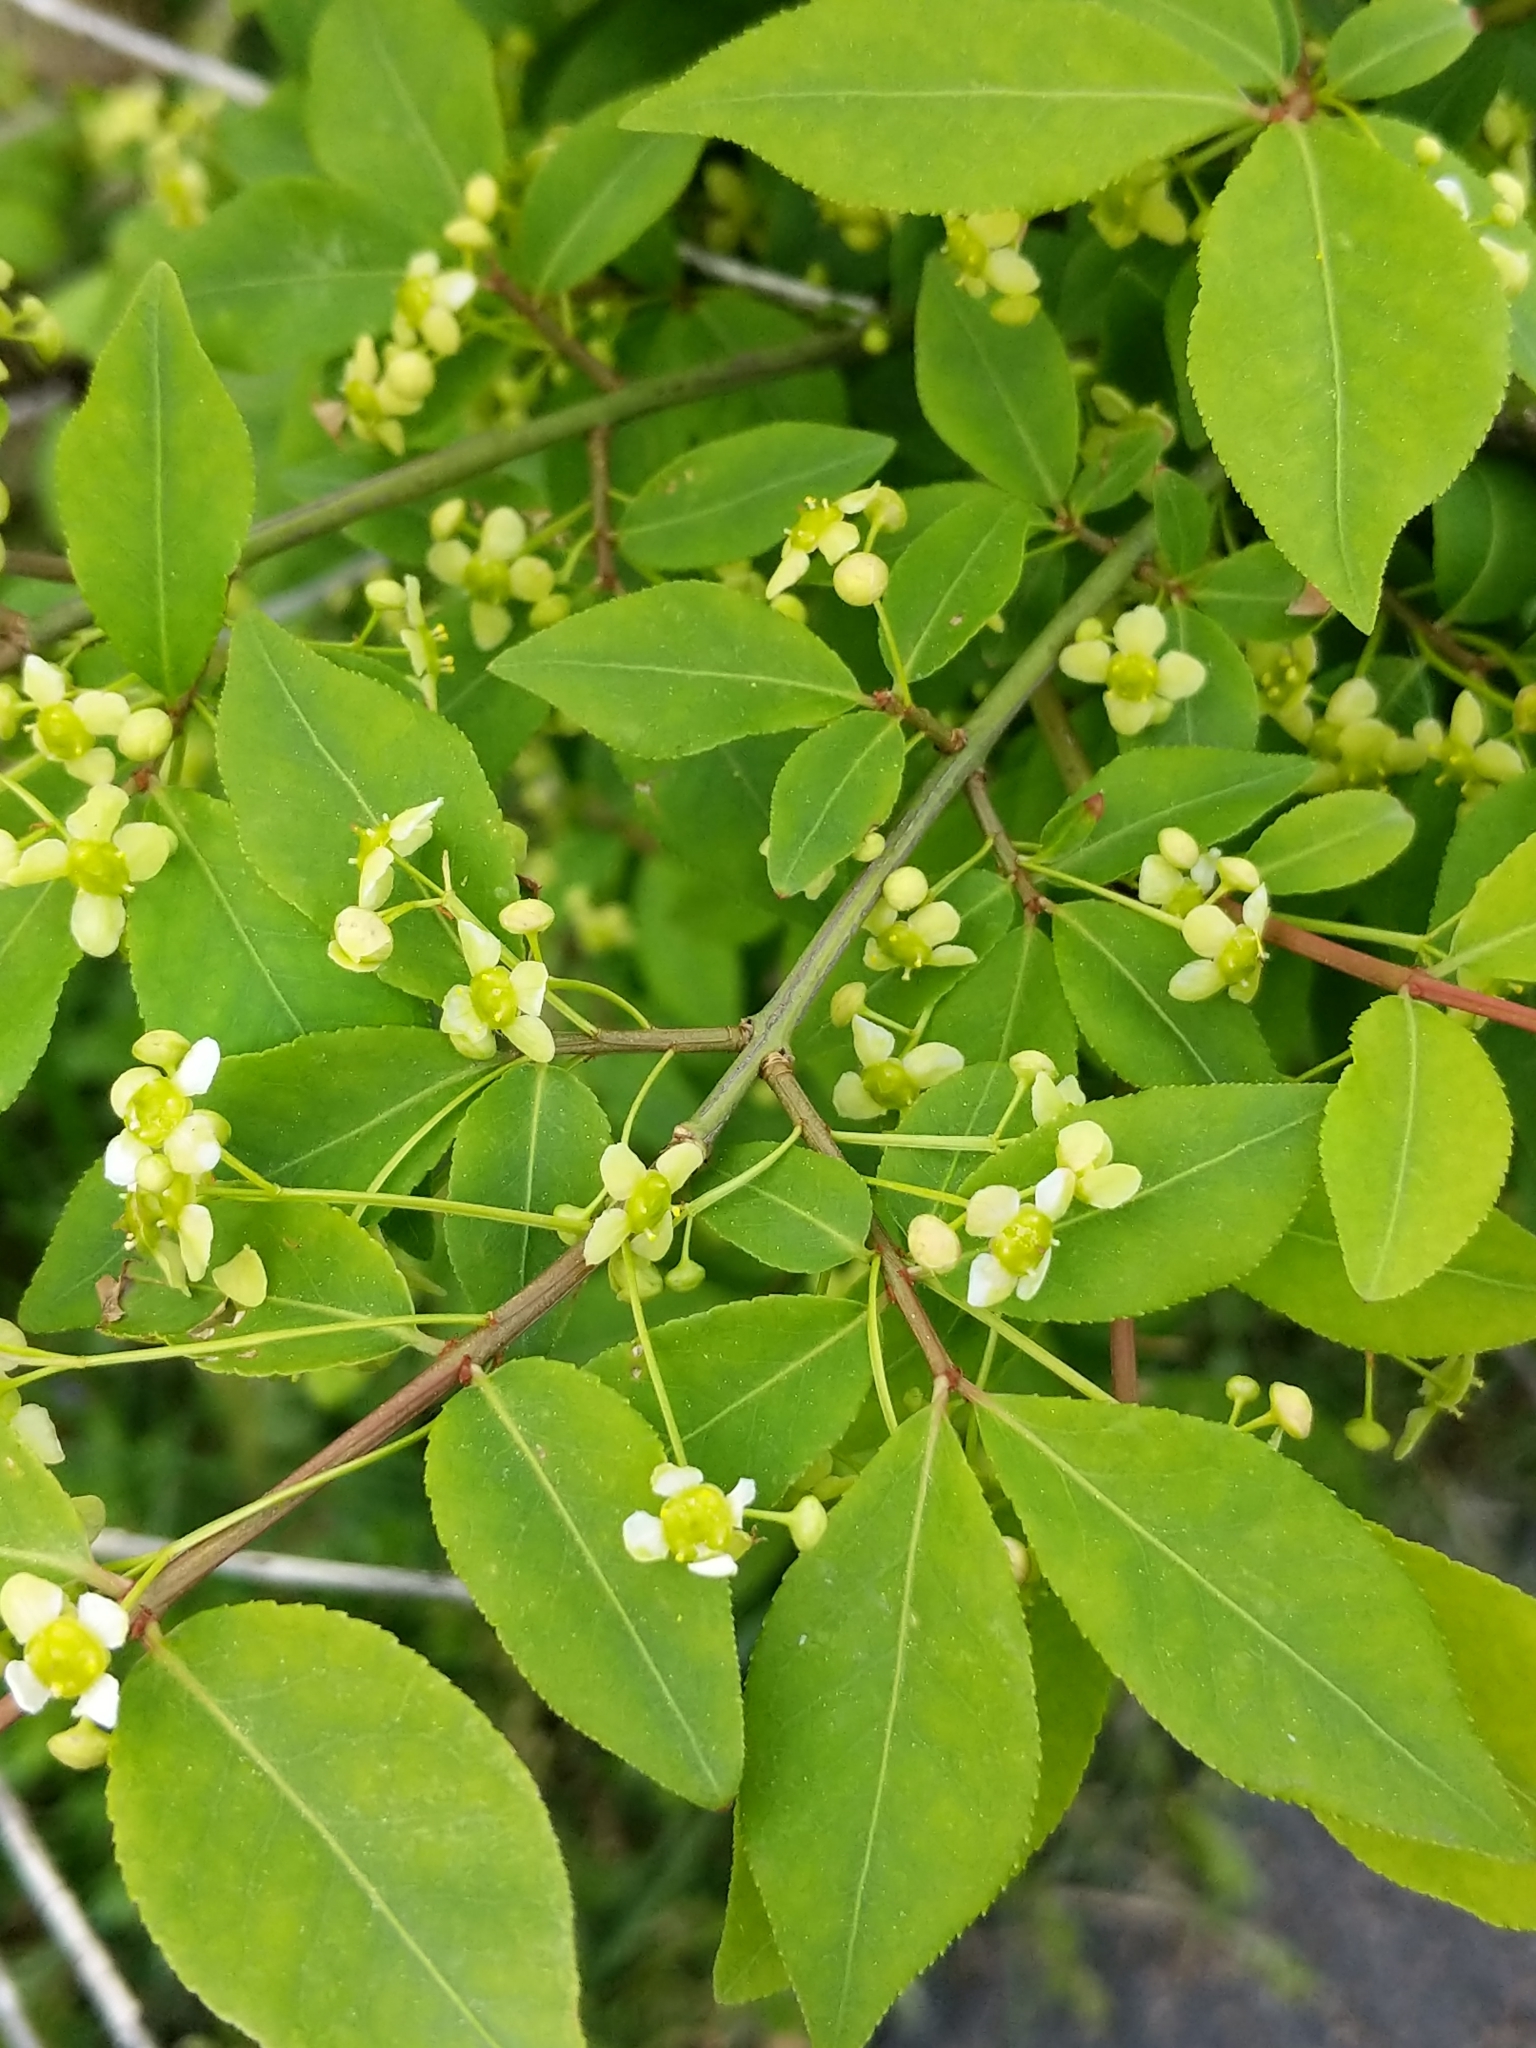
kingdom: Plantae
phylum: Tracheophyta
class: Magnoliopsida
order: Celastrales
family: Celastraceae
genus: Euonymus
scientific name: Euonymus alatus
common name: Winged euonymus
